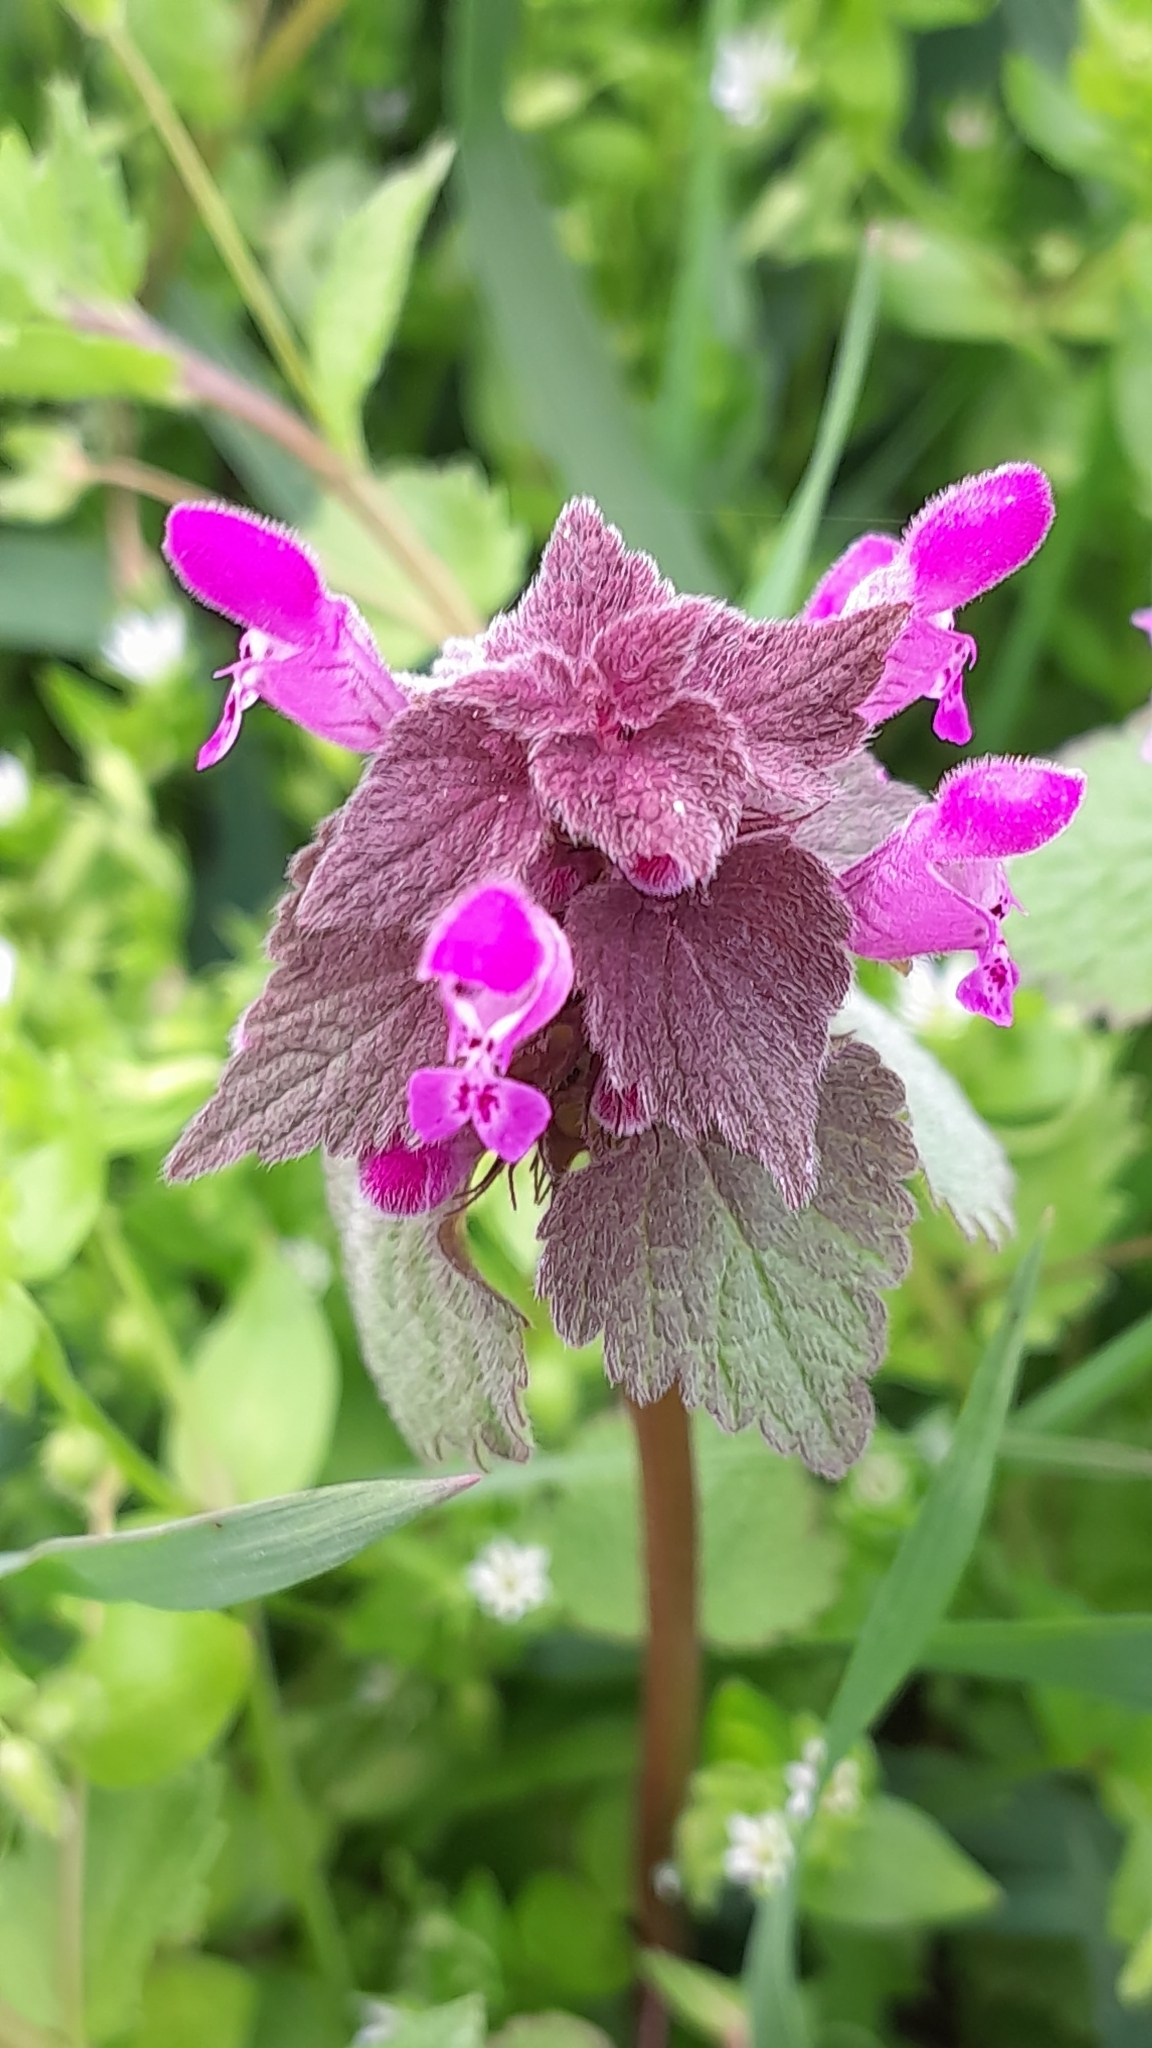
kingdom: Plantae
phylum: Tracheophyta
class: Magnoliopsida
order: Lamiales
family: Lamiaceae
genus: Lamium
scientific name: Lamium purpureum
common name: Red dead-nettle
